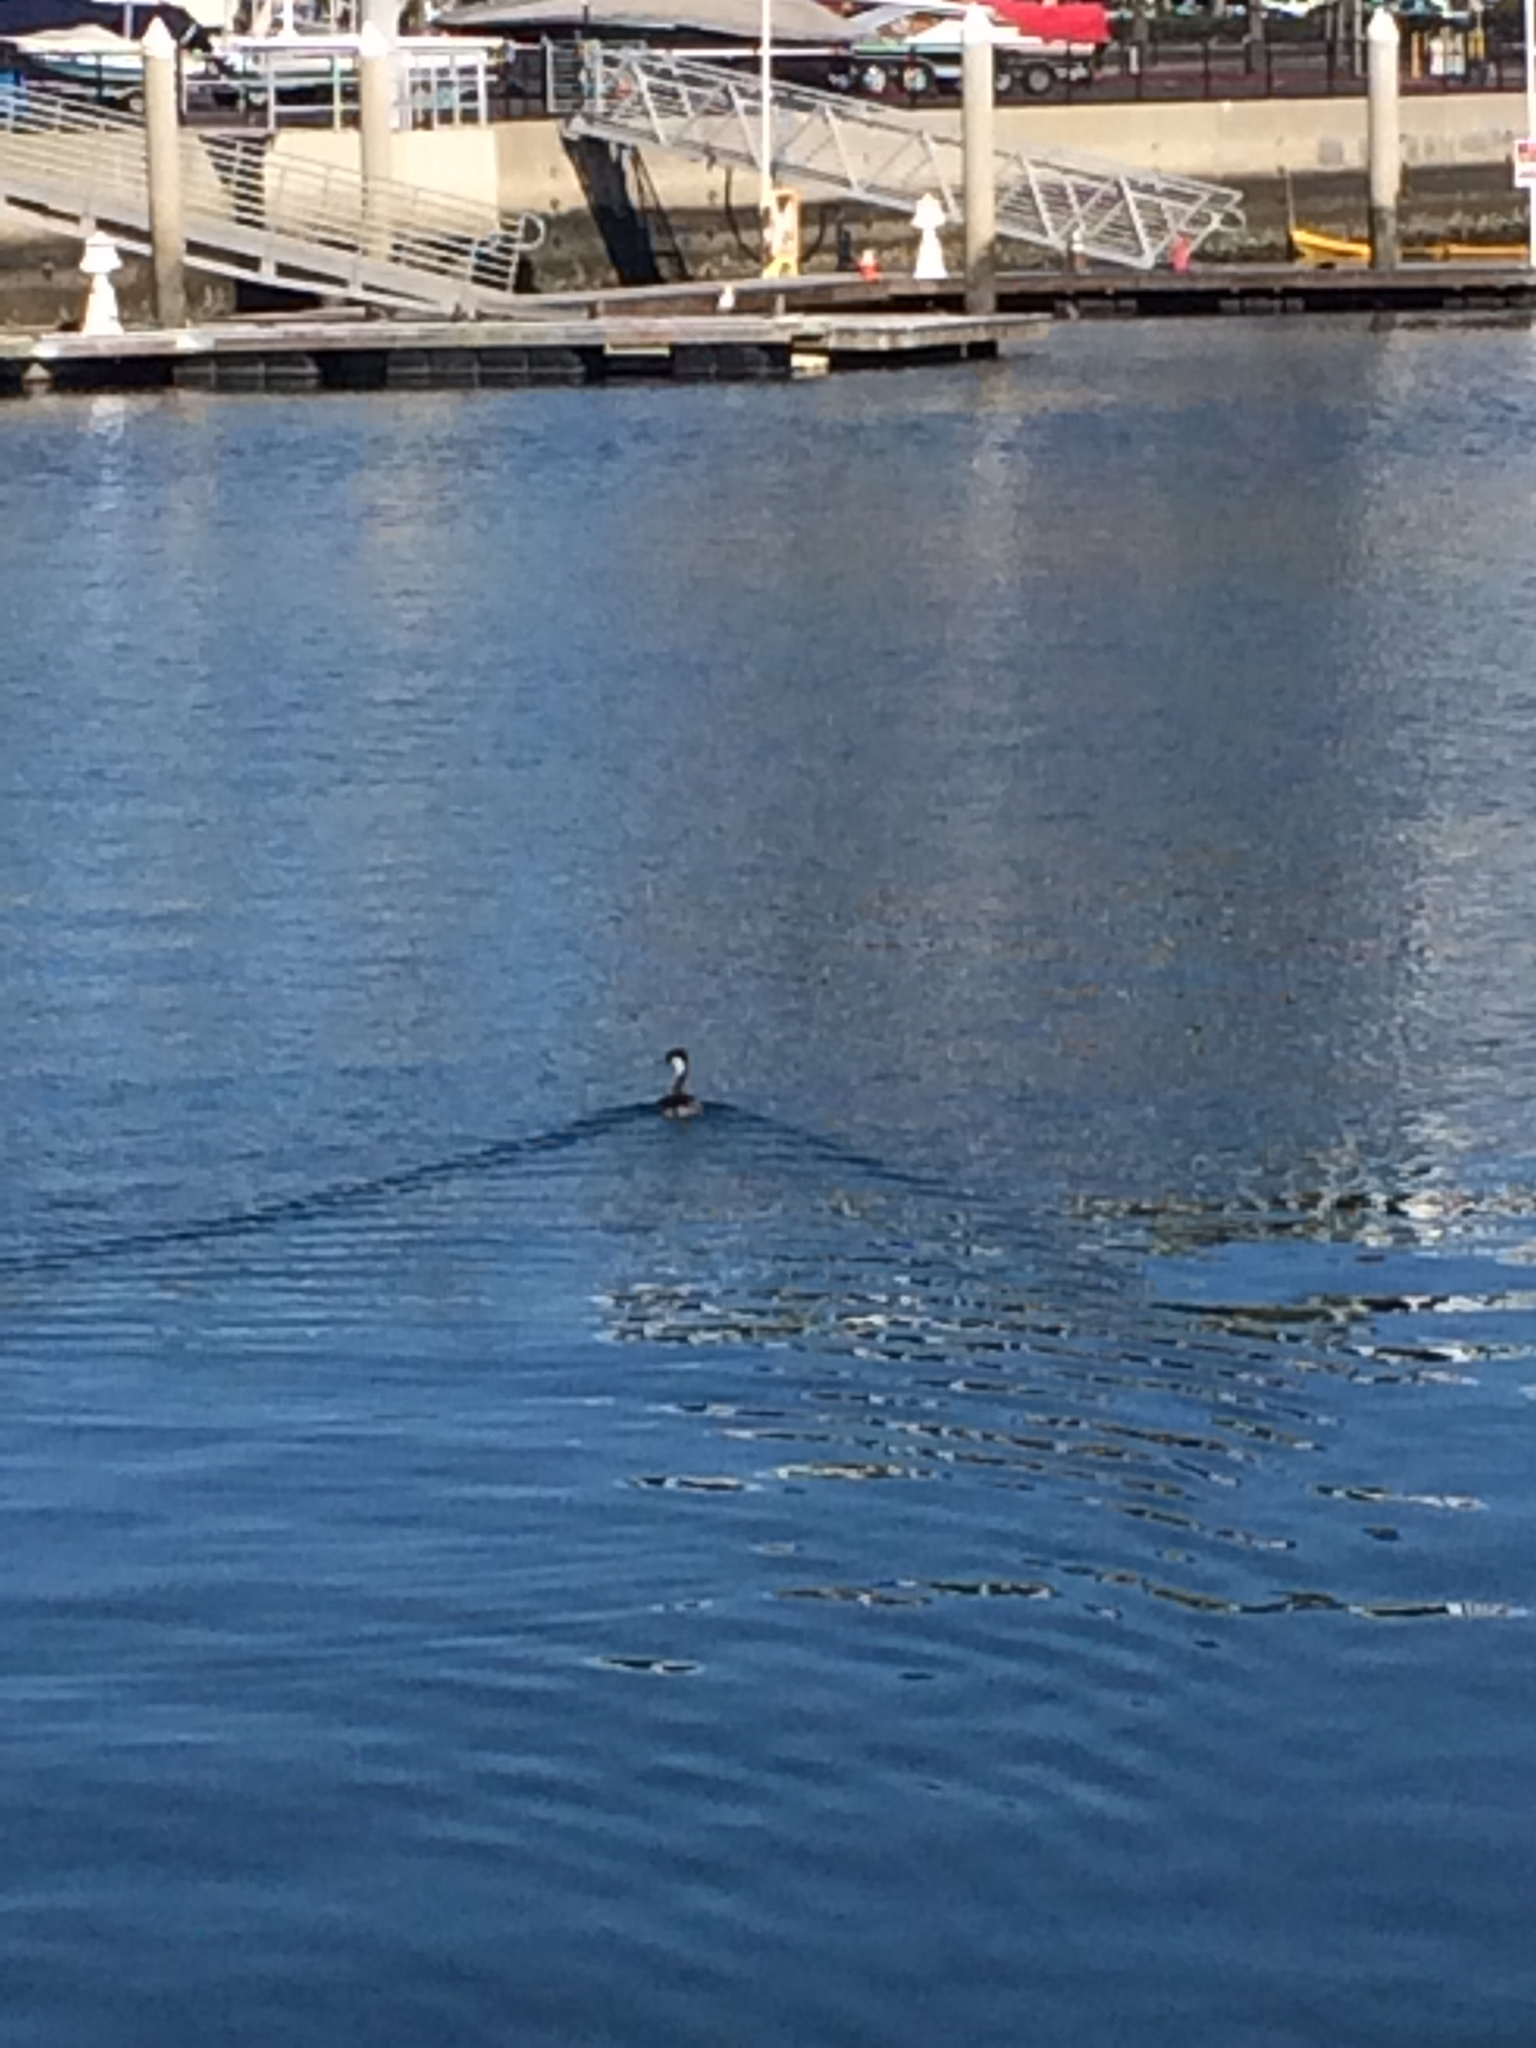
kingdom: Animalia
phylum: Chordata
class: Aves
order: Podicipediformes
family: Podicipedidae
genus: Aechmophorus
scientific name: Aechmophorus occidentalis
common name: Western grebe
